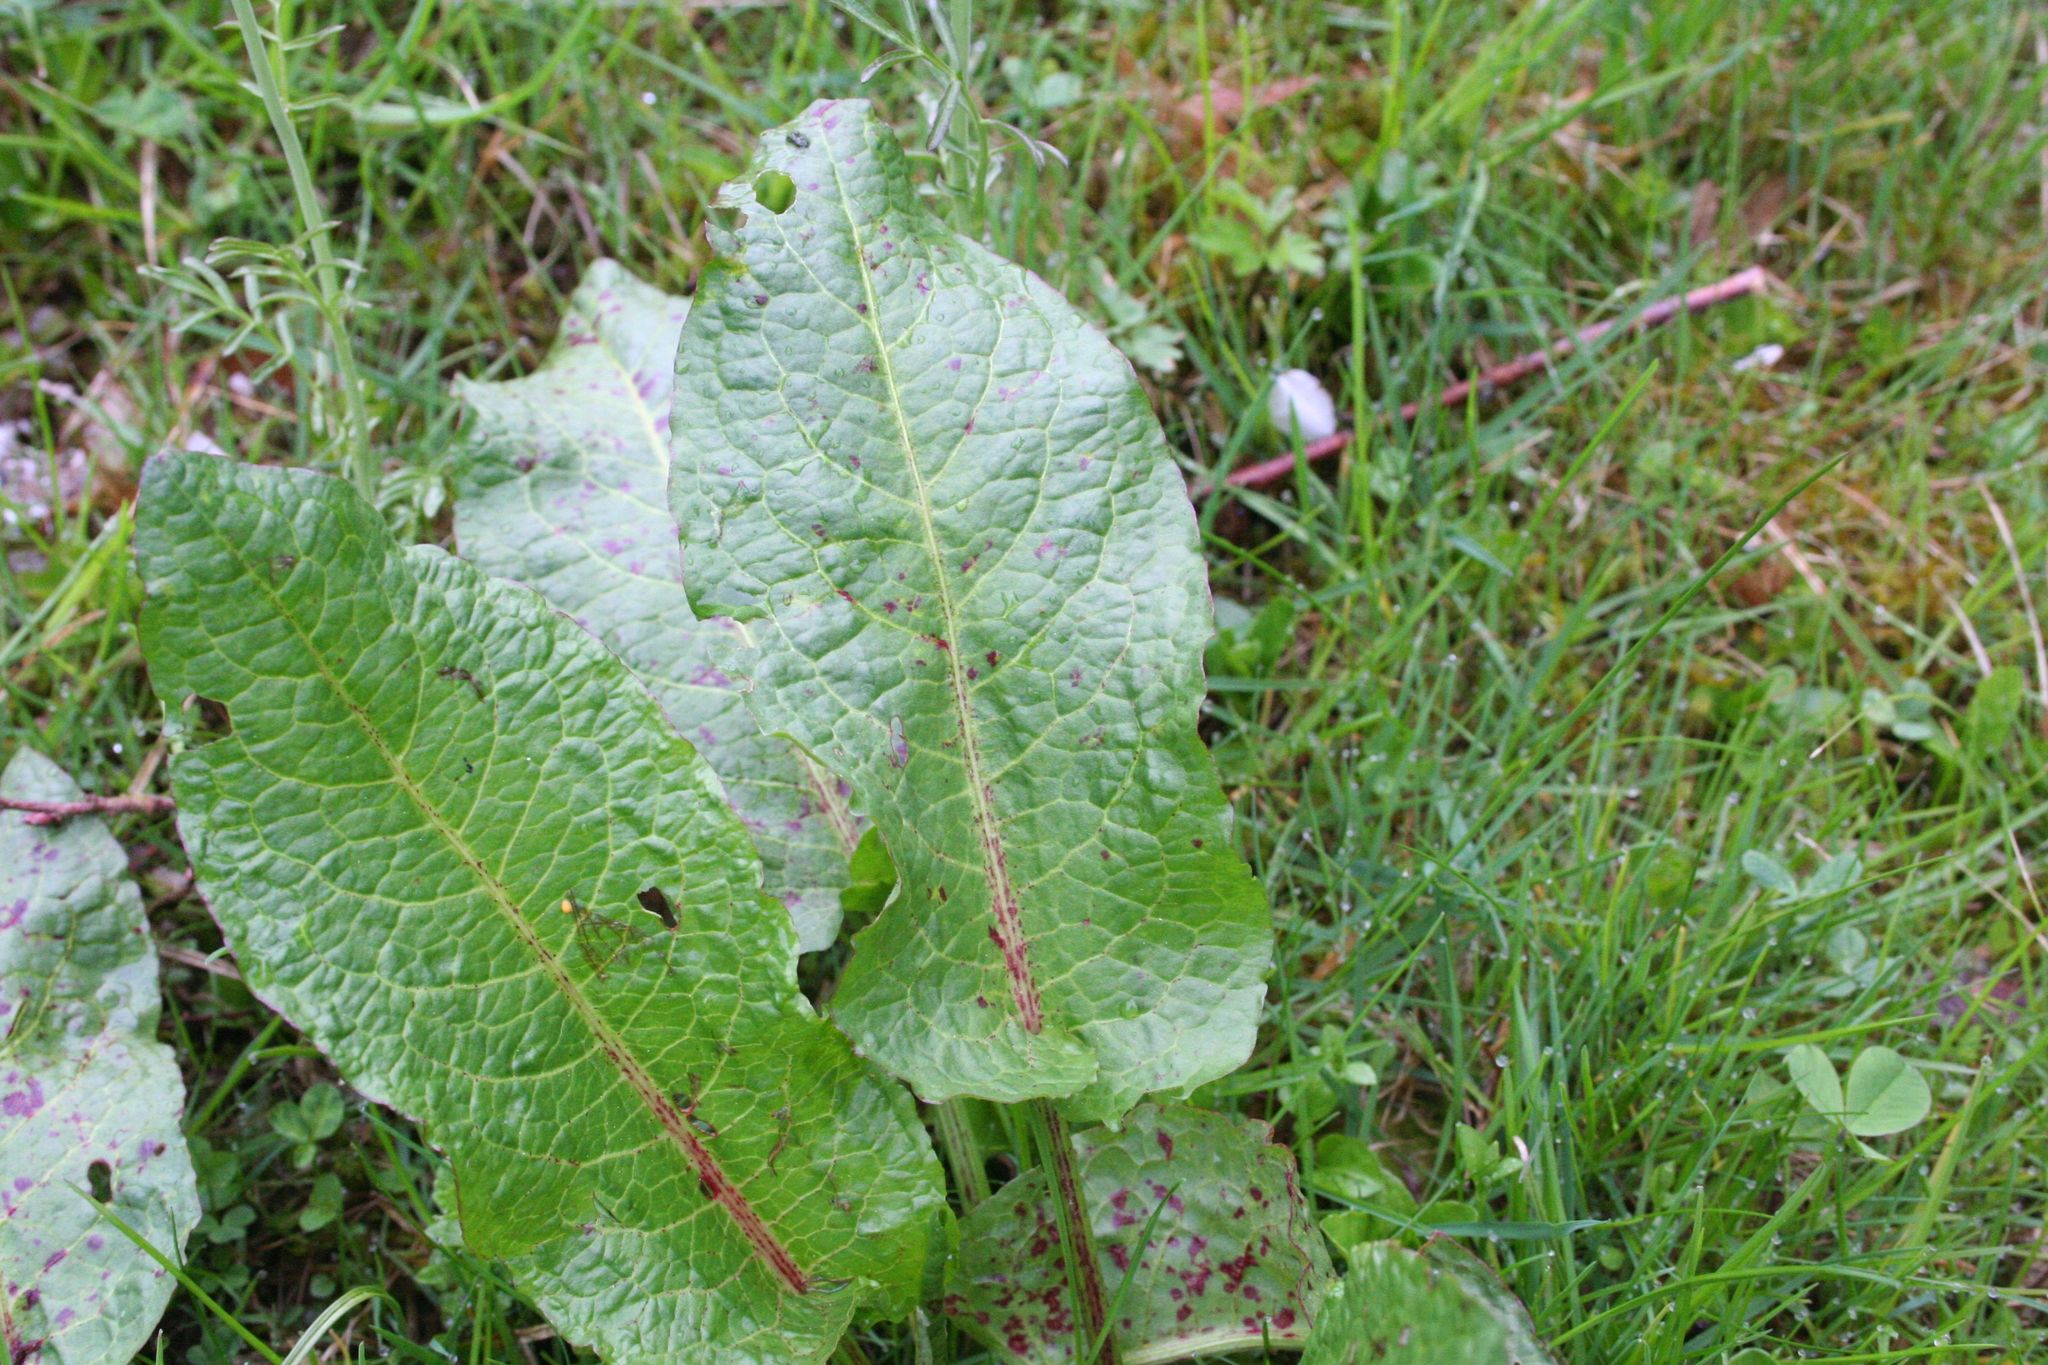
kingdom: Plantae
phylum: Tracheophyta
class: Magnoliopsida
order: Caryophyllales
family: Polygonaceae
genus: Rumex
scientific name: Rumex obtusifolius
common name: Bitter dock
